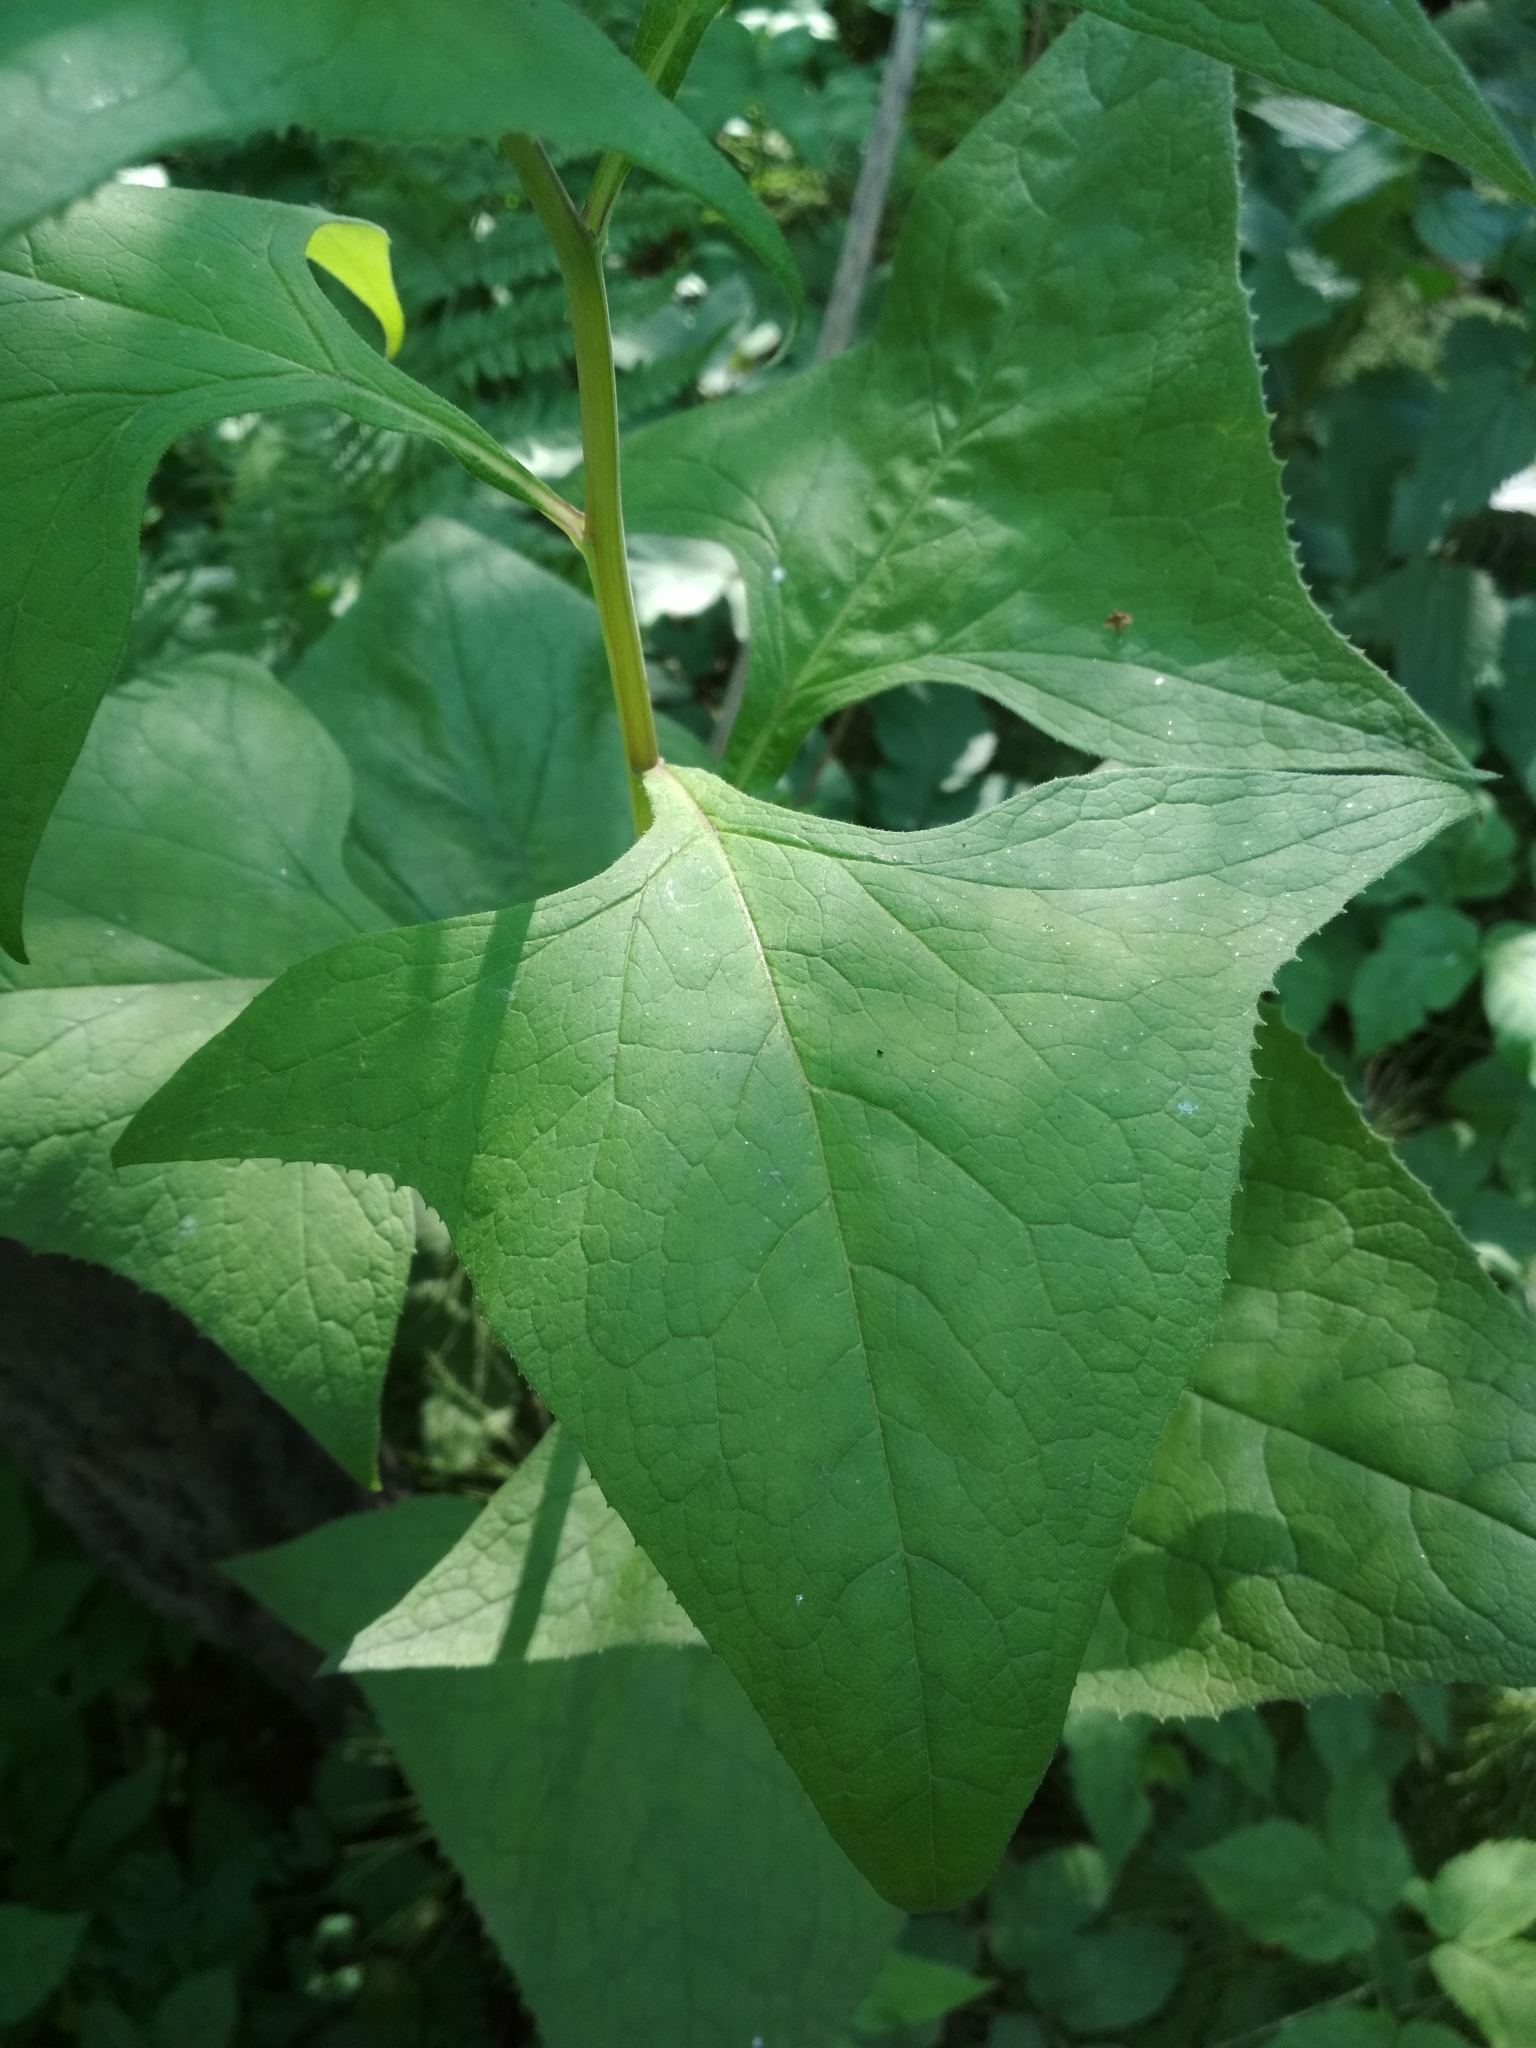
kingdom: Plantae
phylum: Tracheophyta
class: Magnoliopsida
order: Asterales
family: Asteraceae
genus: Parasenecio
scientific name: Parasenecio hastatus
